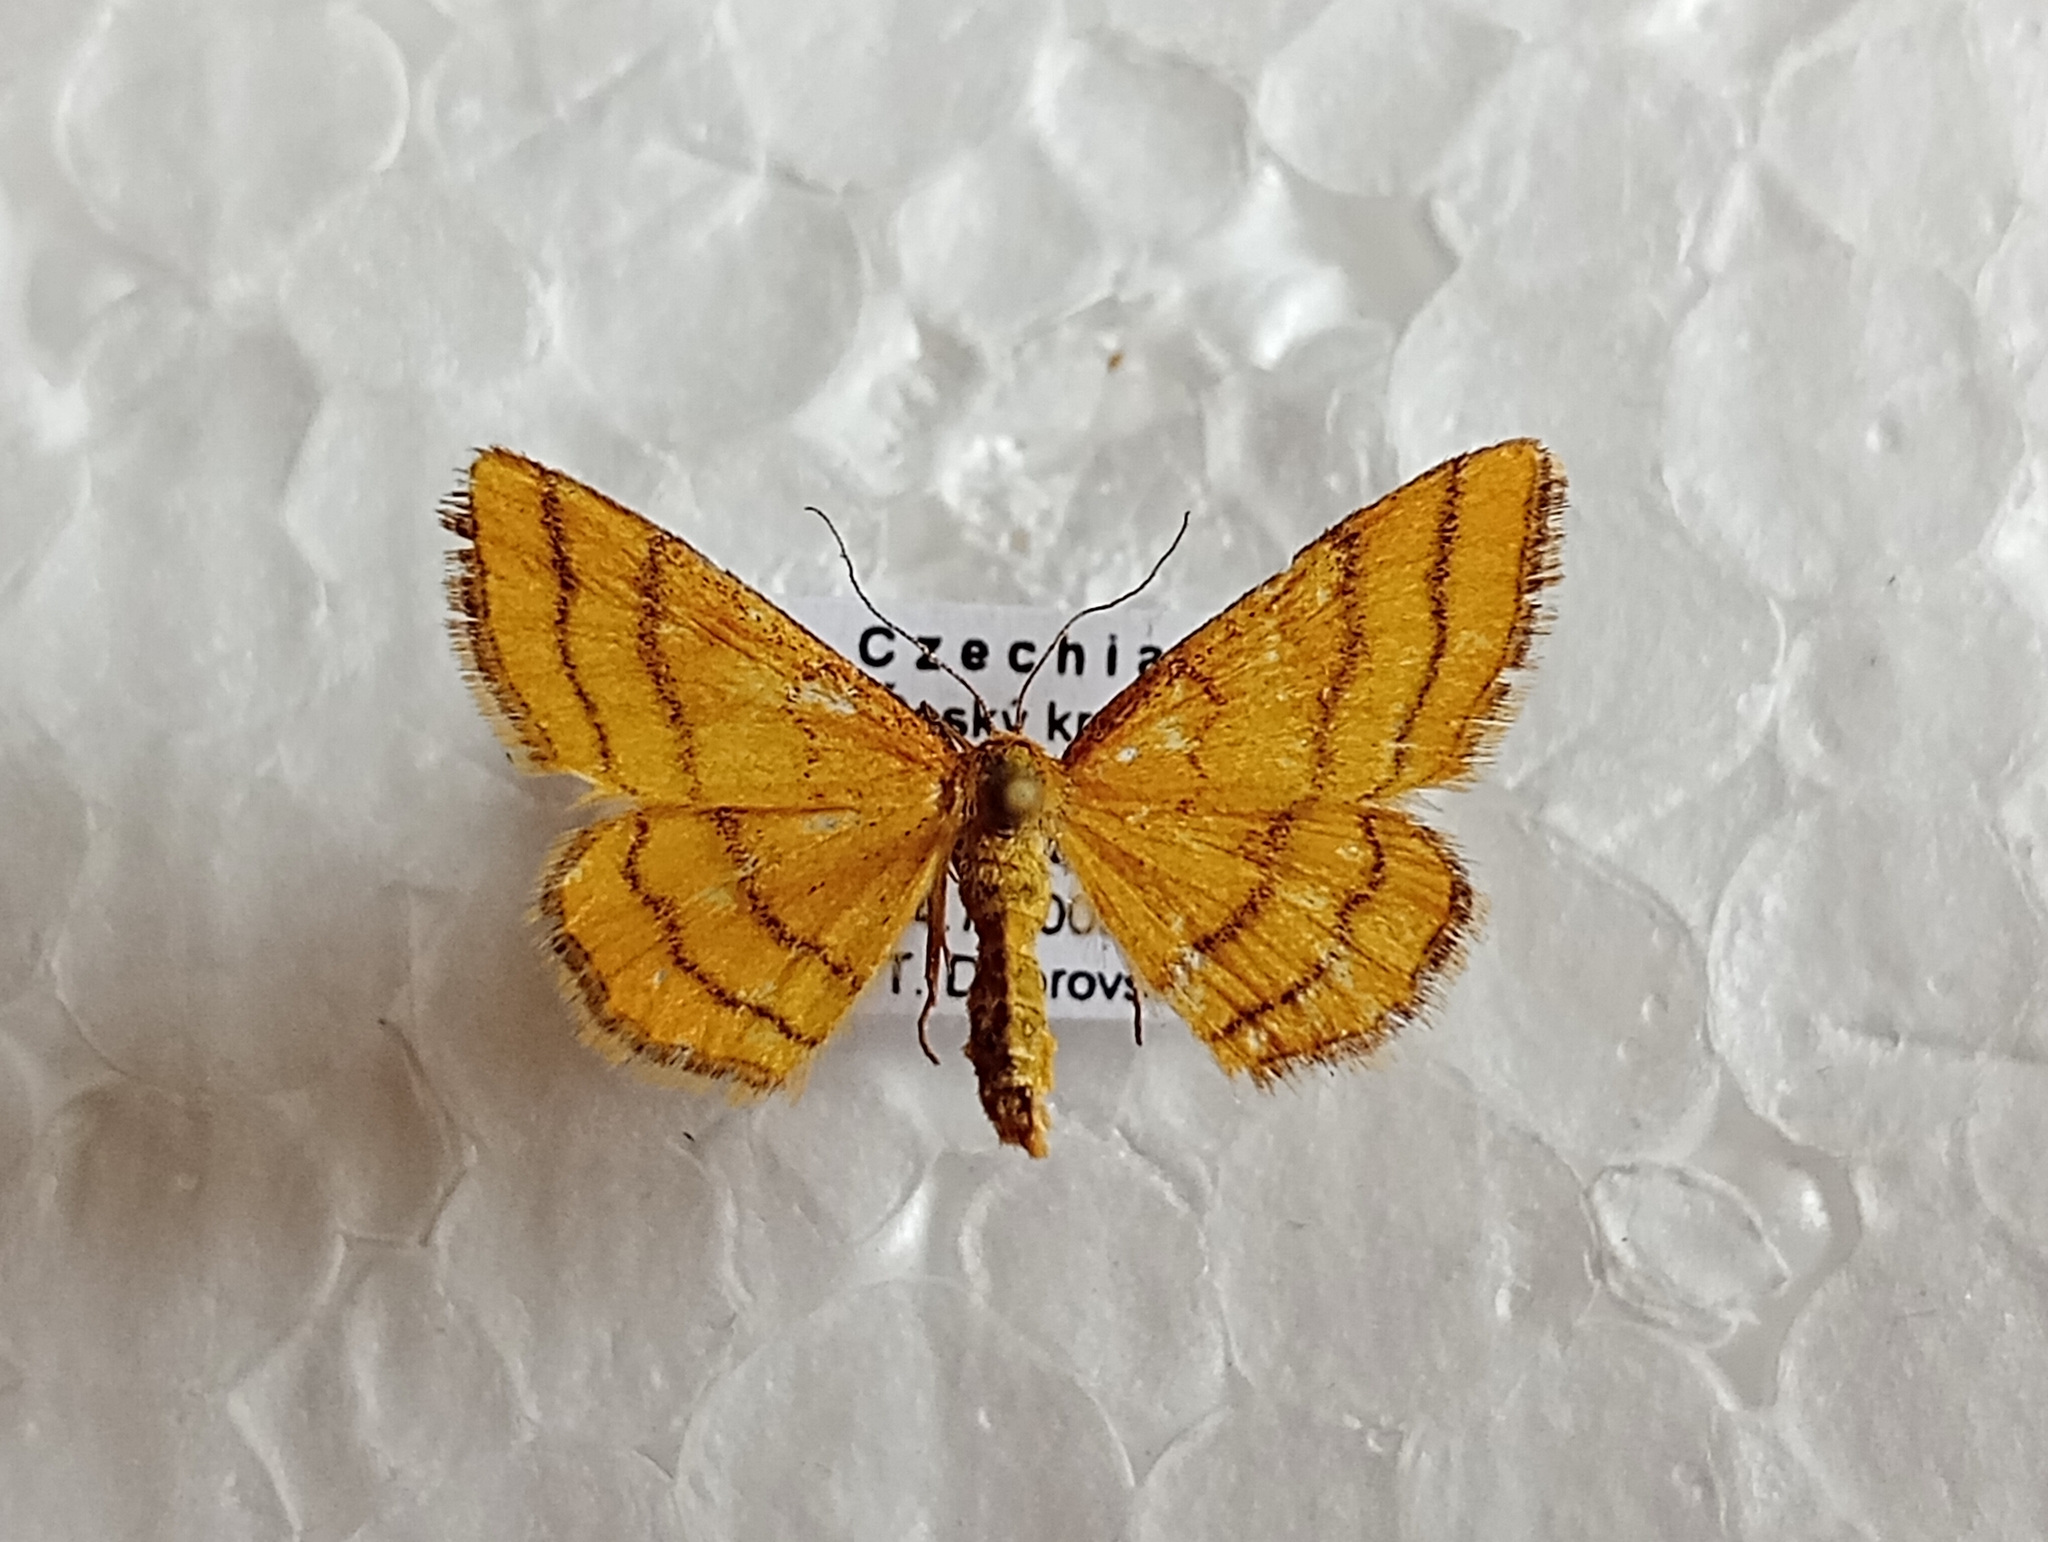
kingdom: Animalia
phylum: Arthropoda
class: Insecta
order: Lepidoptera
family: Geometridae
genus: Idaea
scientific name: Idaea aureolaria
